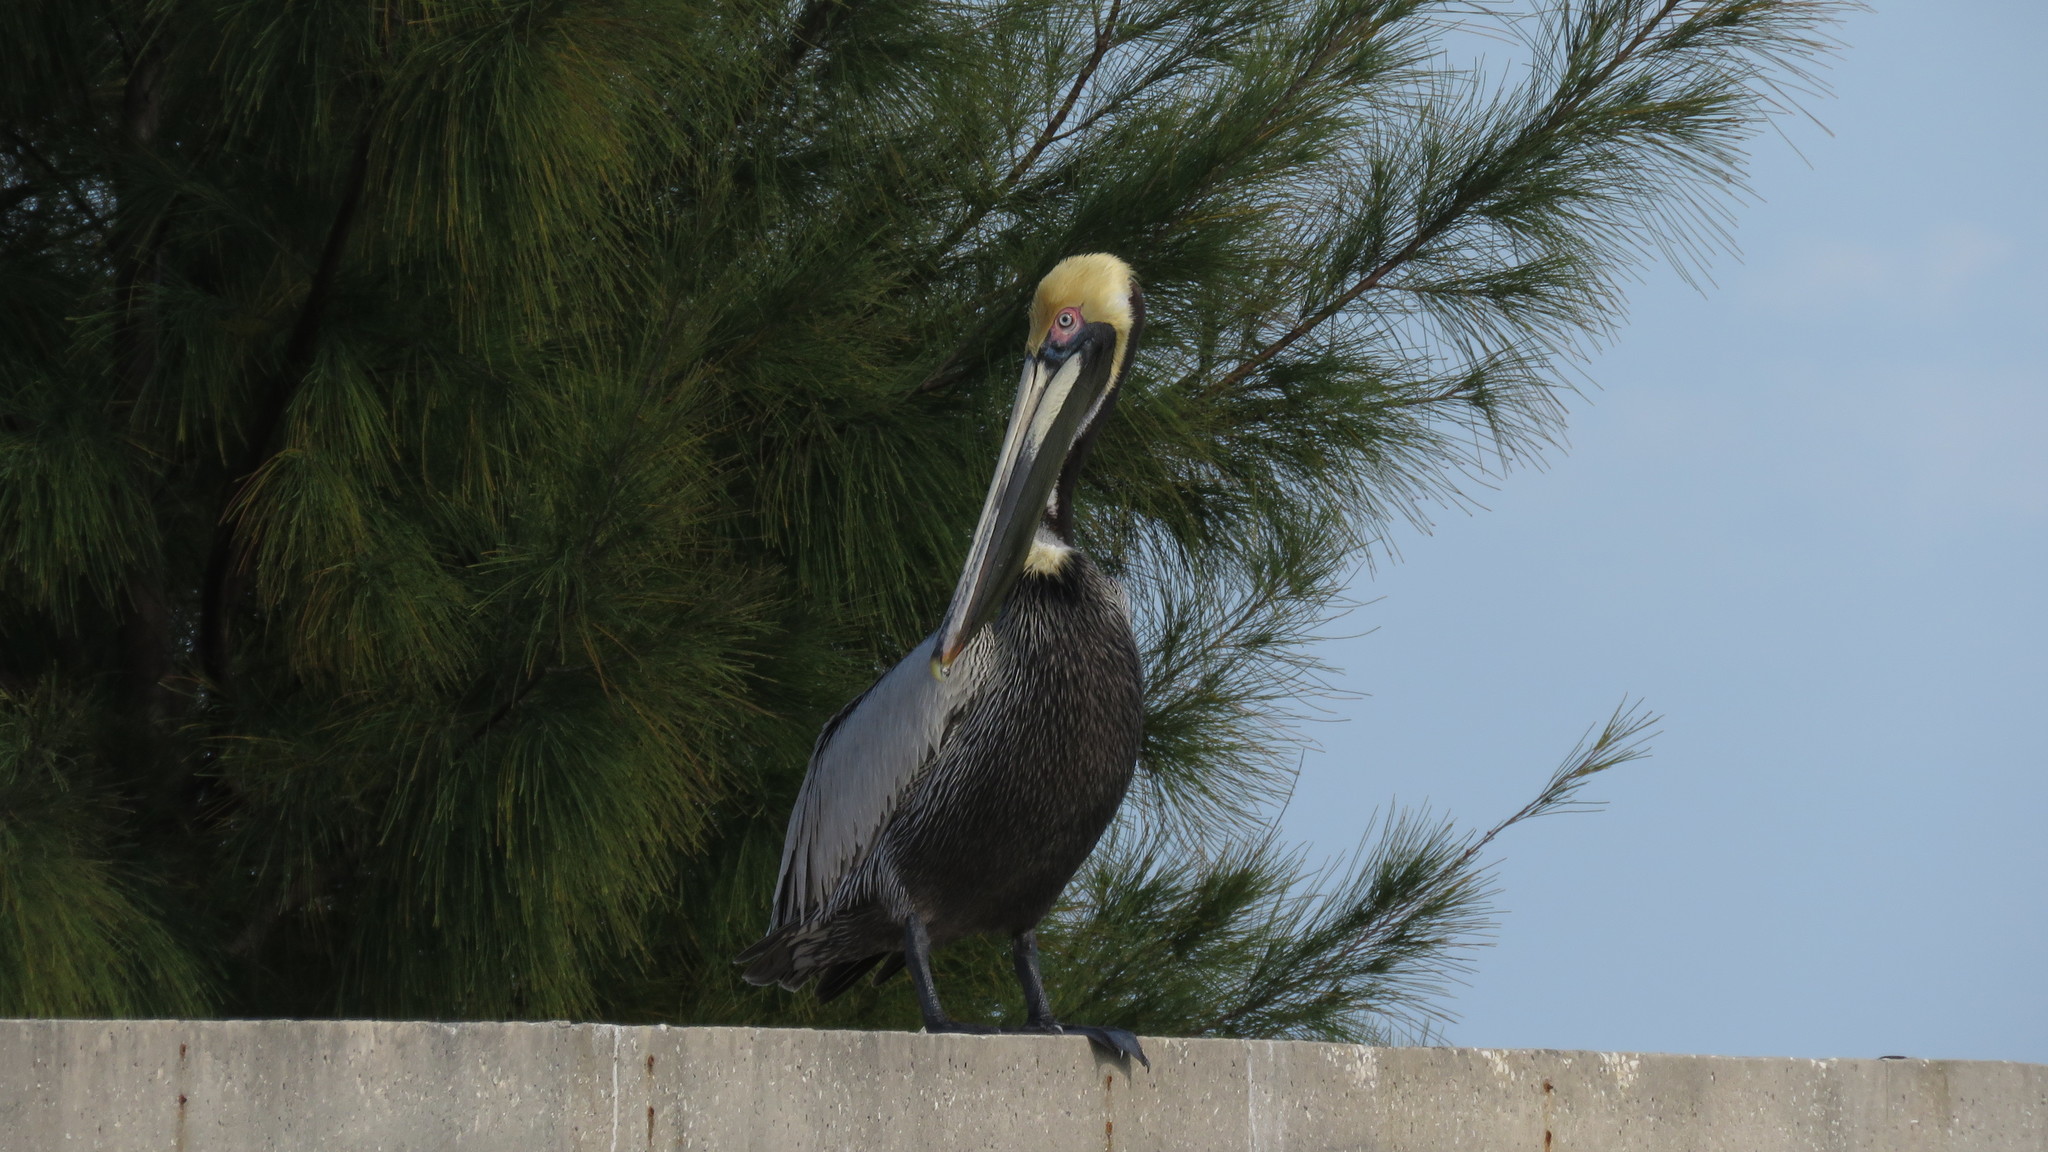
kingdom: Animalia
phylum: Chordata
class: Aves
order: Pelecaniformes
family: Pelecanidae
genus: Pelecanus
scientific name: Pelecanus occidentalis
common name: Brown pelican
